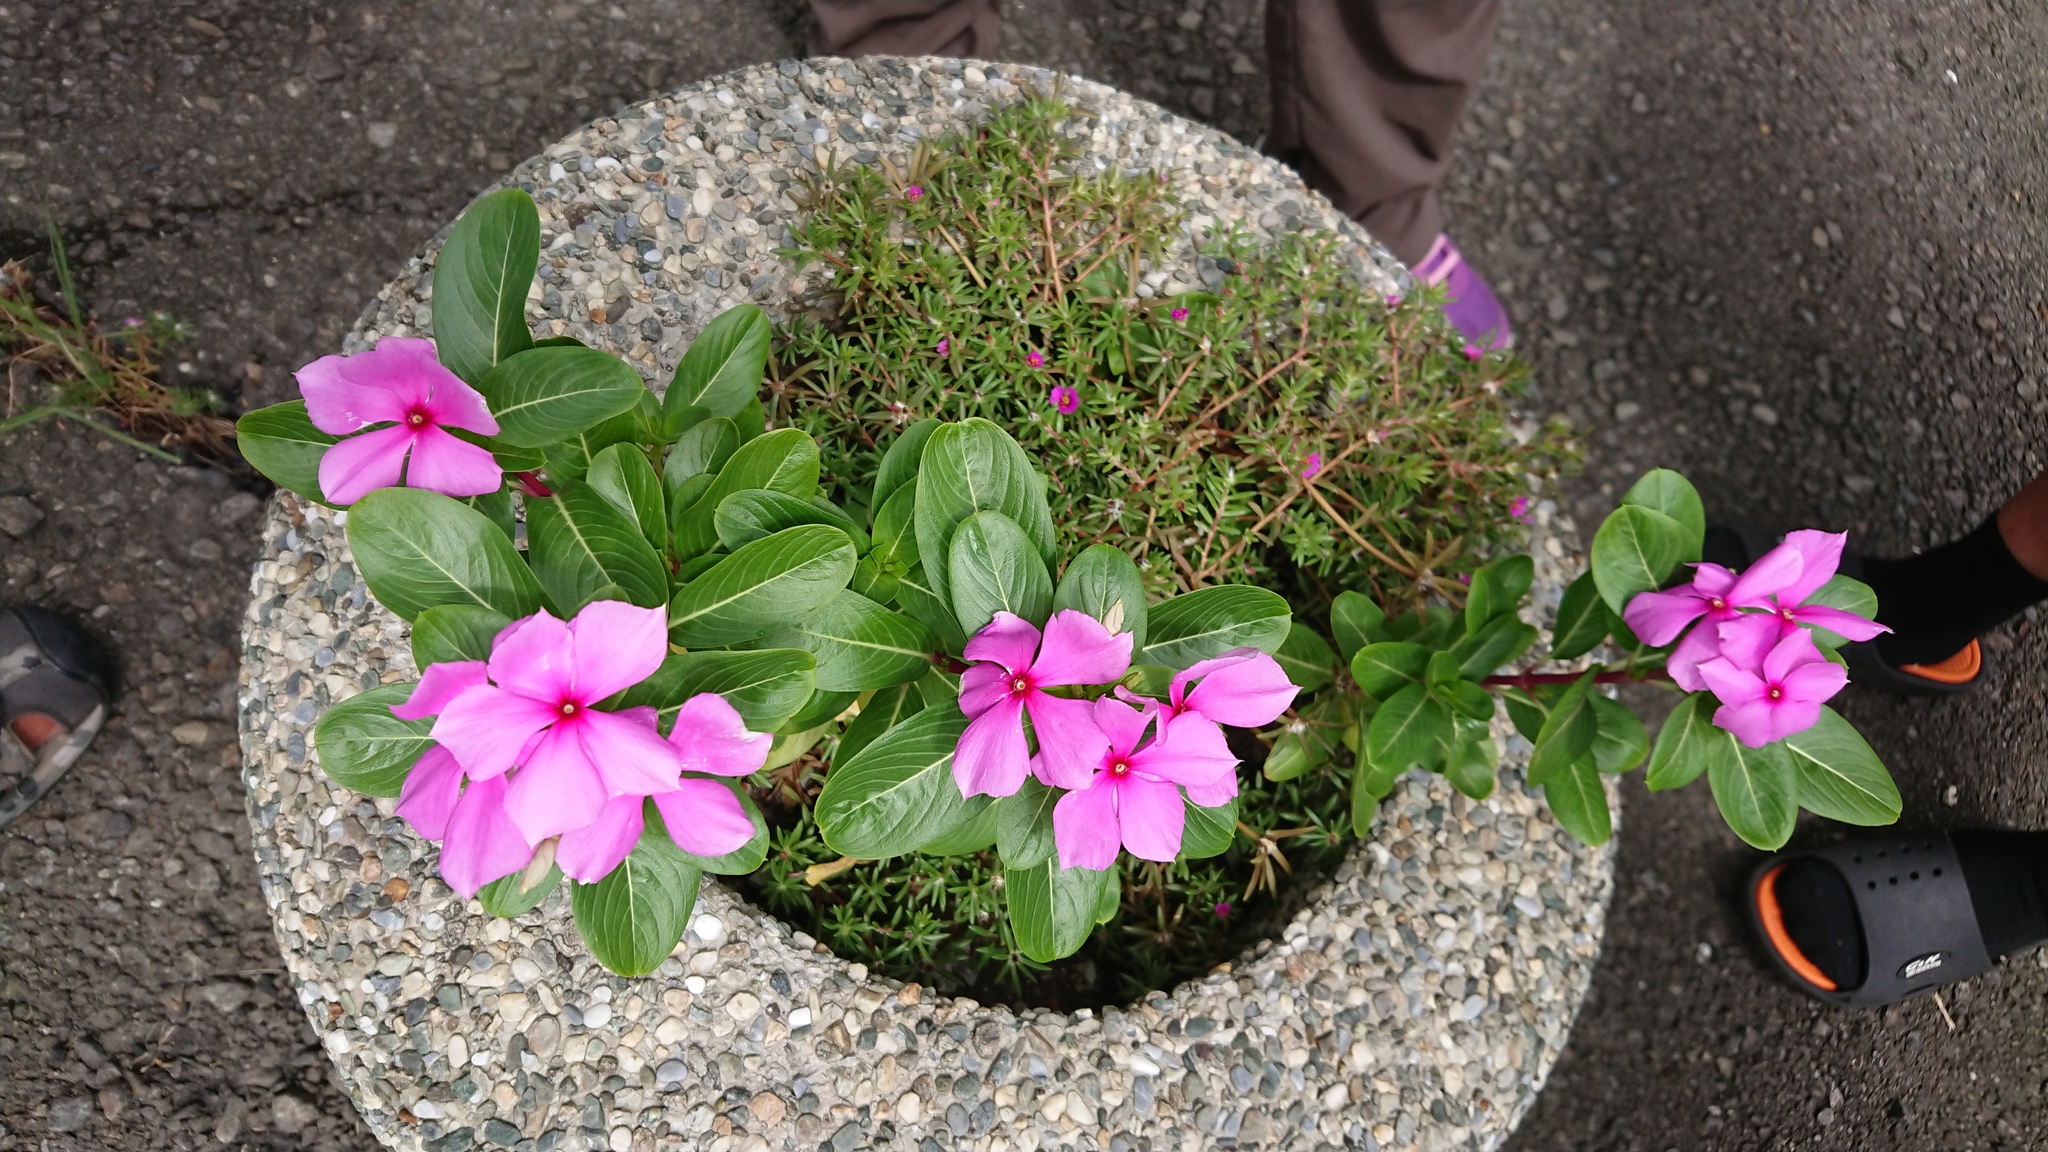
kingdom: Plantae
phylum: Tracheophyta
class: Magnoliopsida
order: Gentianales
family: Apocynaceae
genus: Catharanthus
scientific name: Catharanthus roseus
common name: Madagascar periwinkle
